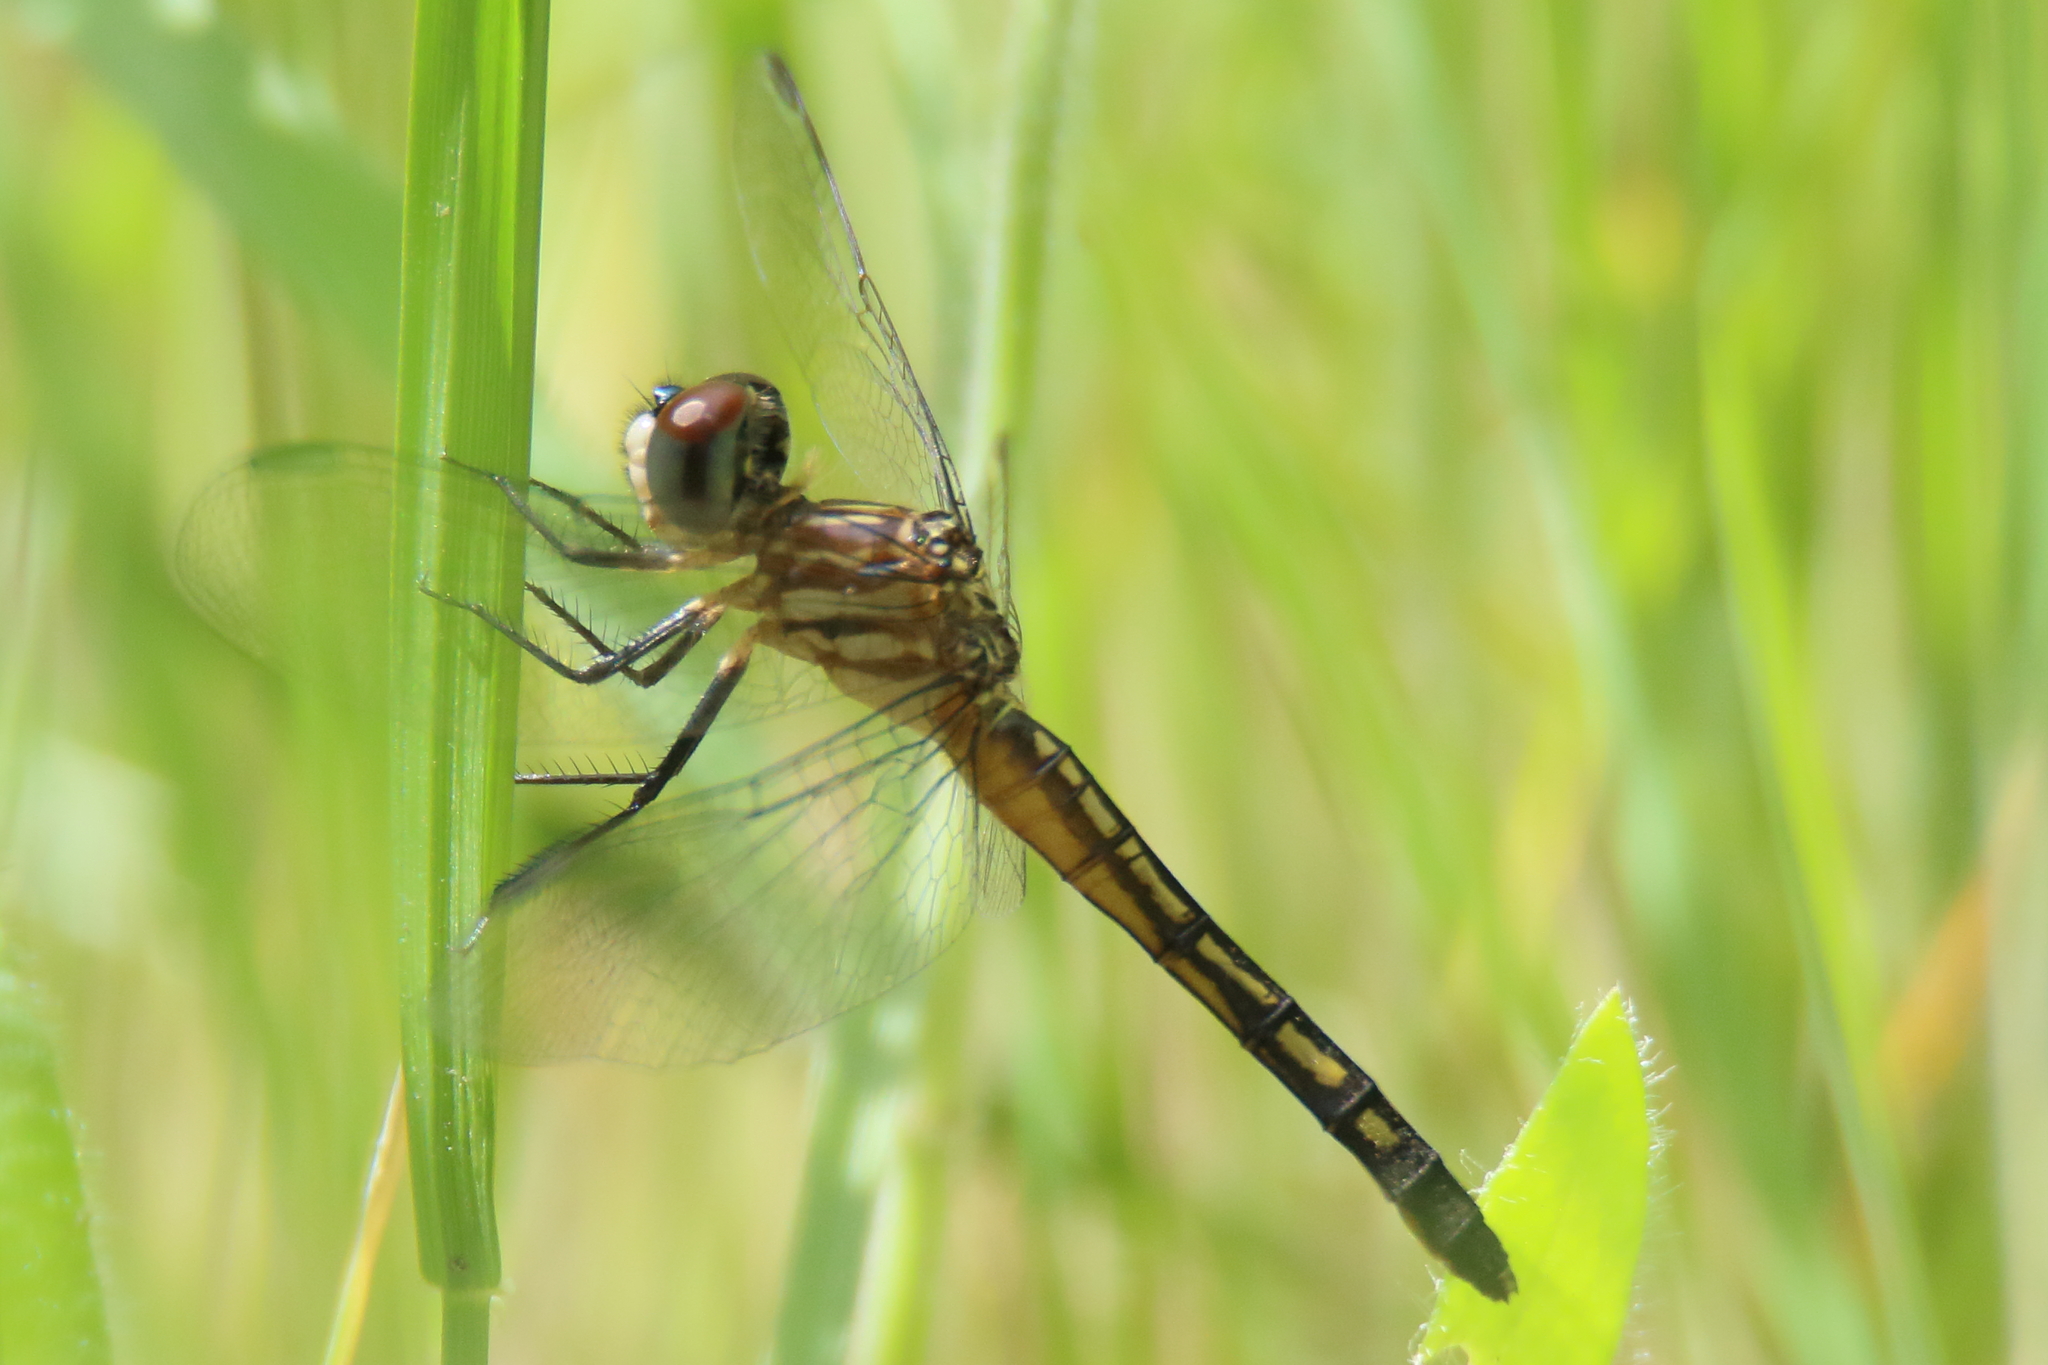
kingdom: Animalia
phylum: Arthropoda
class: Insecta
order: Odonata
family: Libellulidae
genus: Pachydiplax
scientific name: Pachydiplax longipennis
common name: Blue dasher
